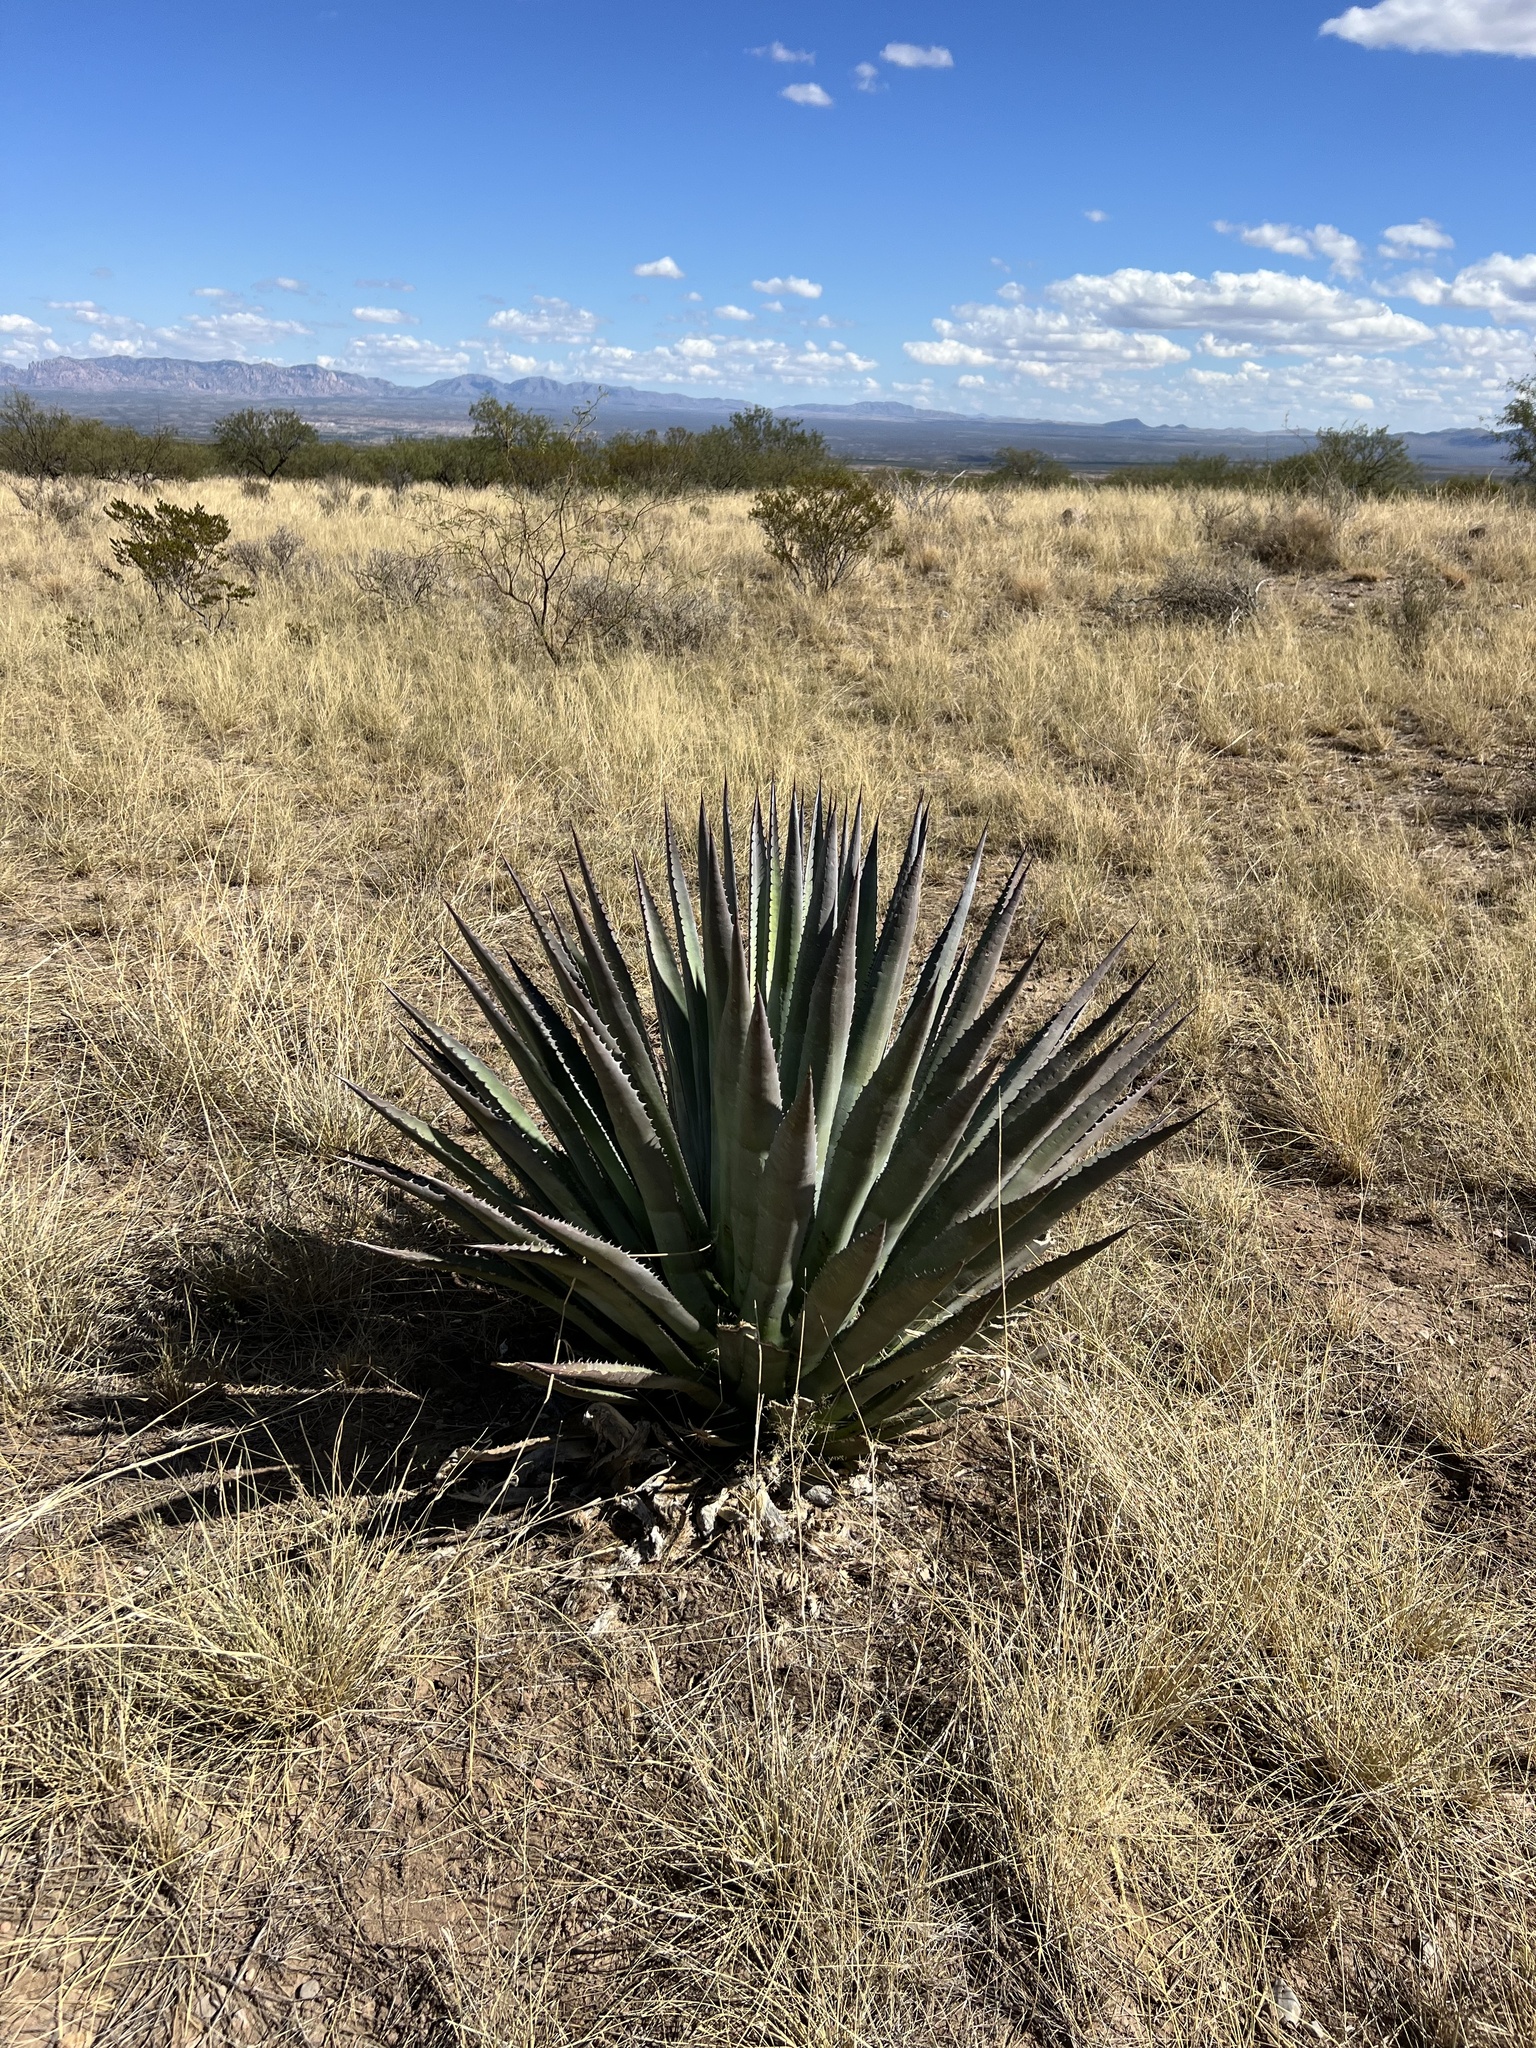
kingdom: Plantae
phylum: Tracheophyta
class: Liliopsida
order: Asparagales
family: Asparagaceae
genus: Agave
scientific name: Agave palmeri
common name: Palmer agave
